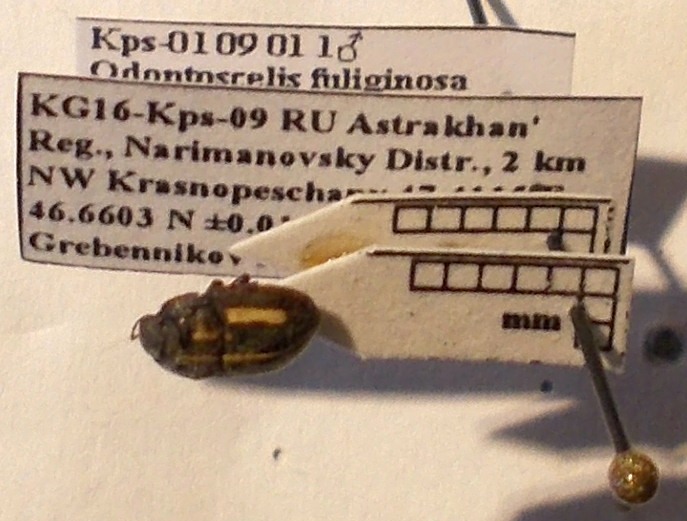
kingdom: Animalia
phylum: Arthropoda
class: Insecta
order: Hemiptera
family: Scutelleridae
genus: Odontoscelis
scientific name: Odontoscelis fuliginosa
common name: Greater streaked shieldbug
